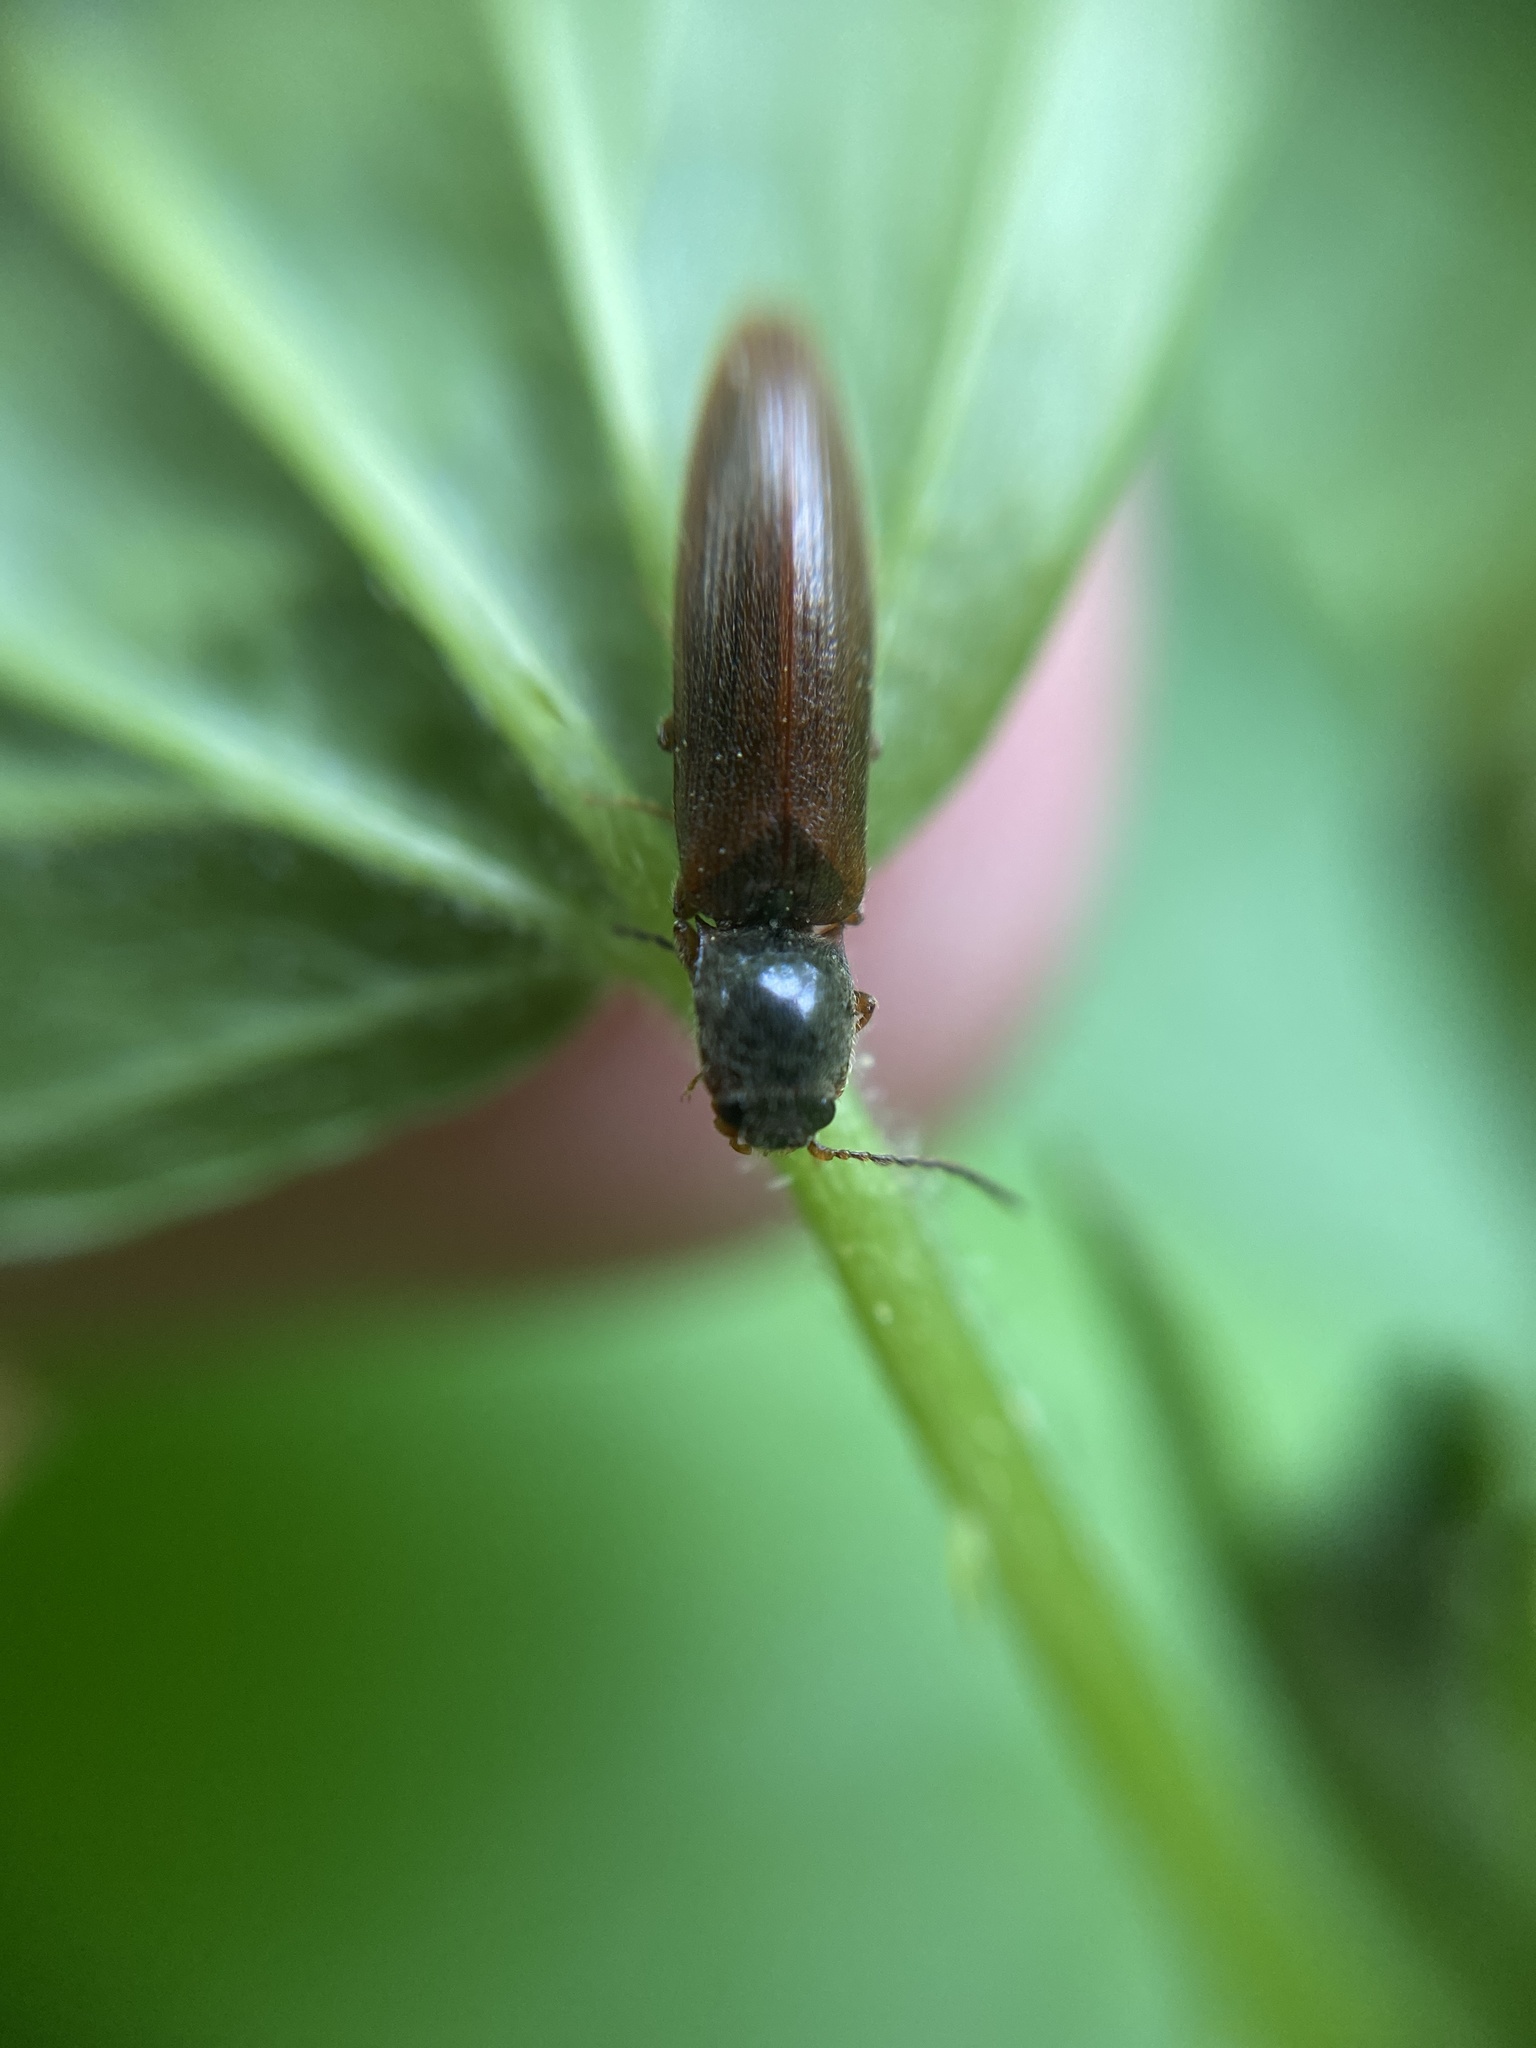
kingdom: Animalia
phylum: Arthropoda
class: Insecta
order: Coleoptera
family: Elateridae
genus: Athous
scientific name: Athous subfuscus
